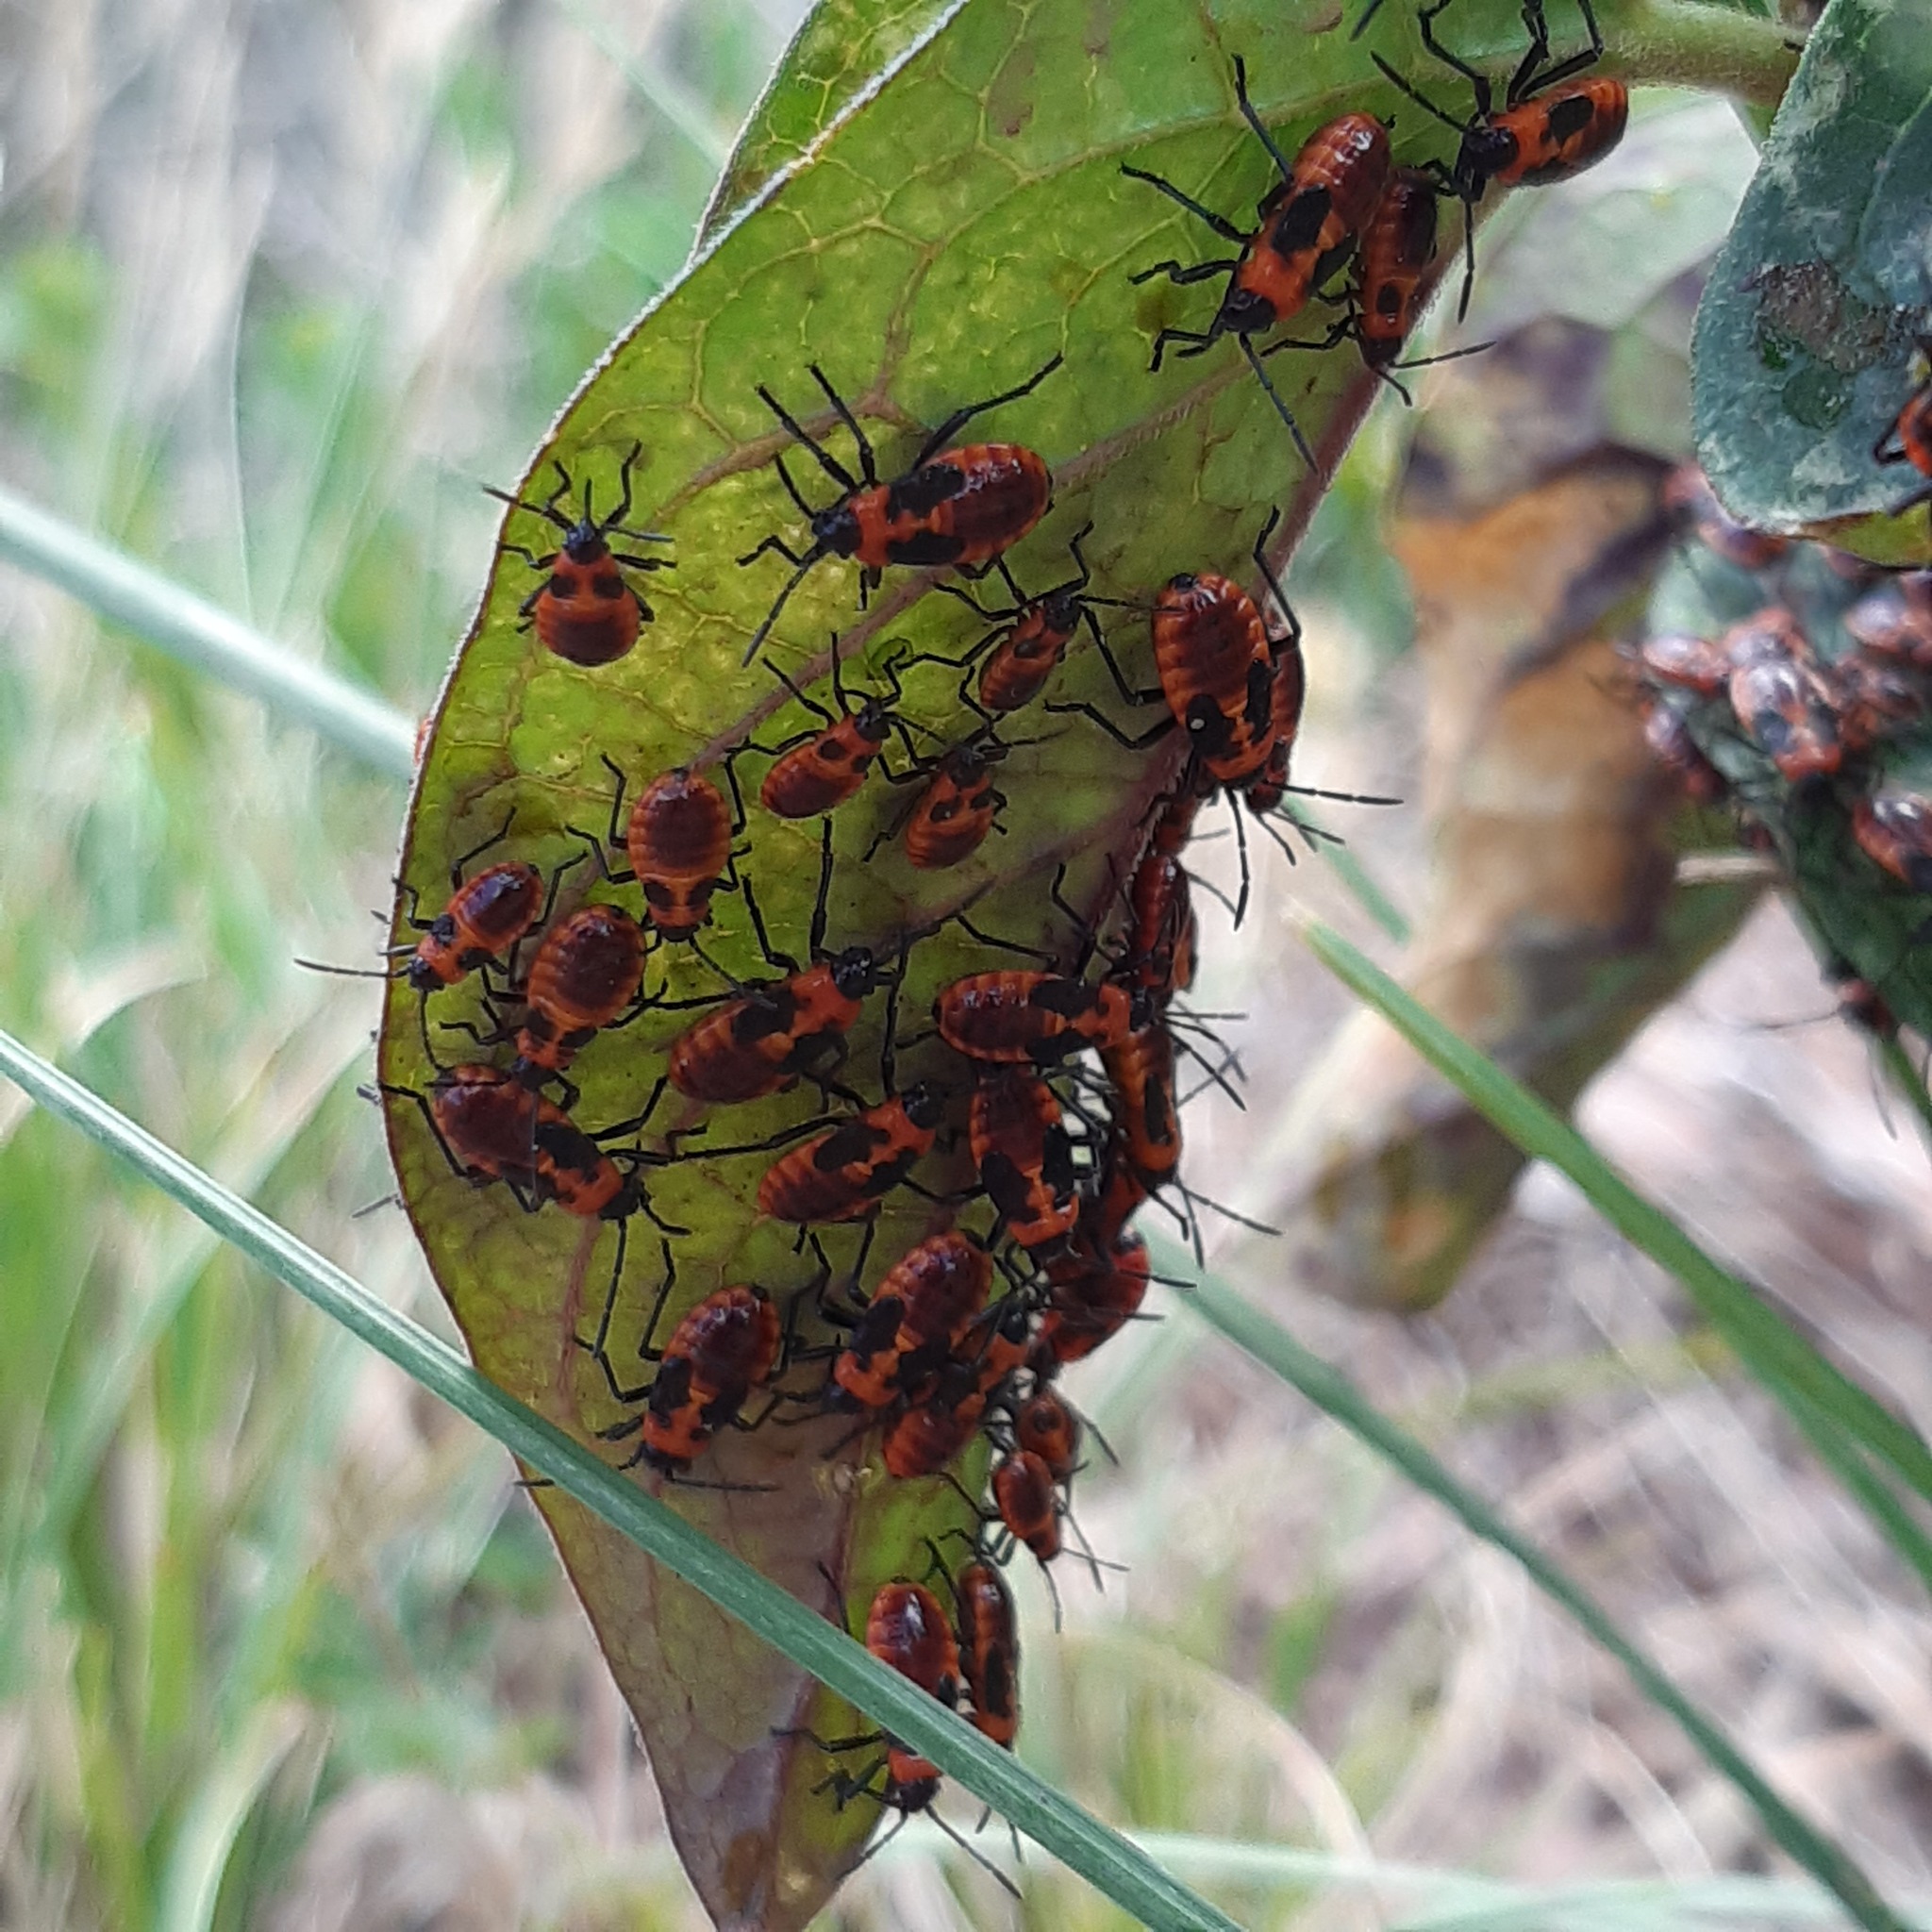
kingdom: Animalia
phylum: Arthropoda
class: Insecta
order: Hemiptera
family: Lygaeidae
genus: Tropidothorax
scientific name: Tropidothorax leucopterus
